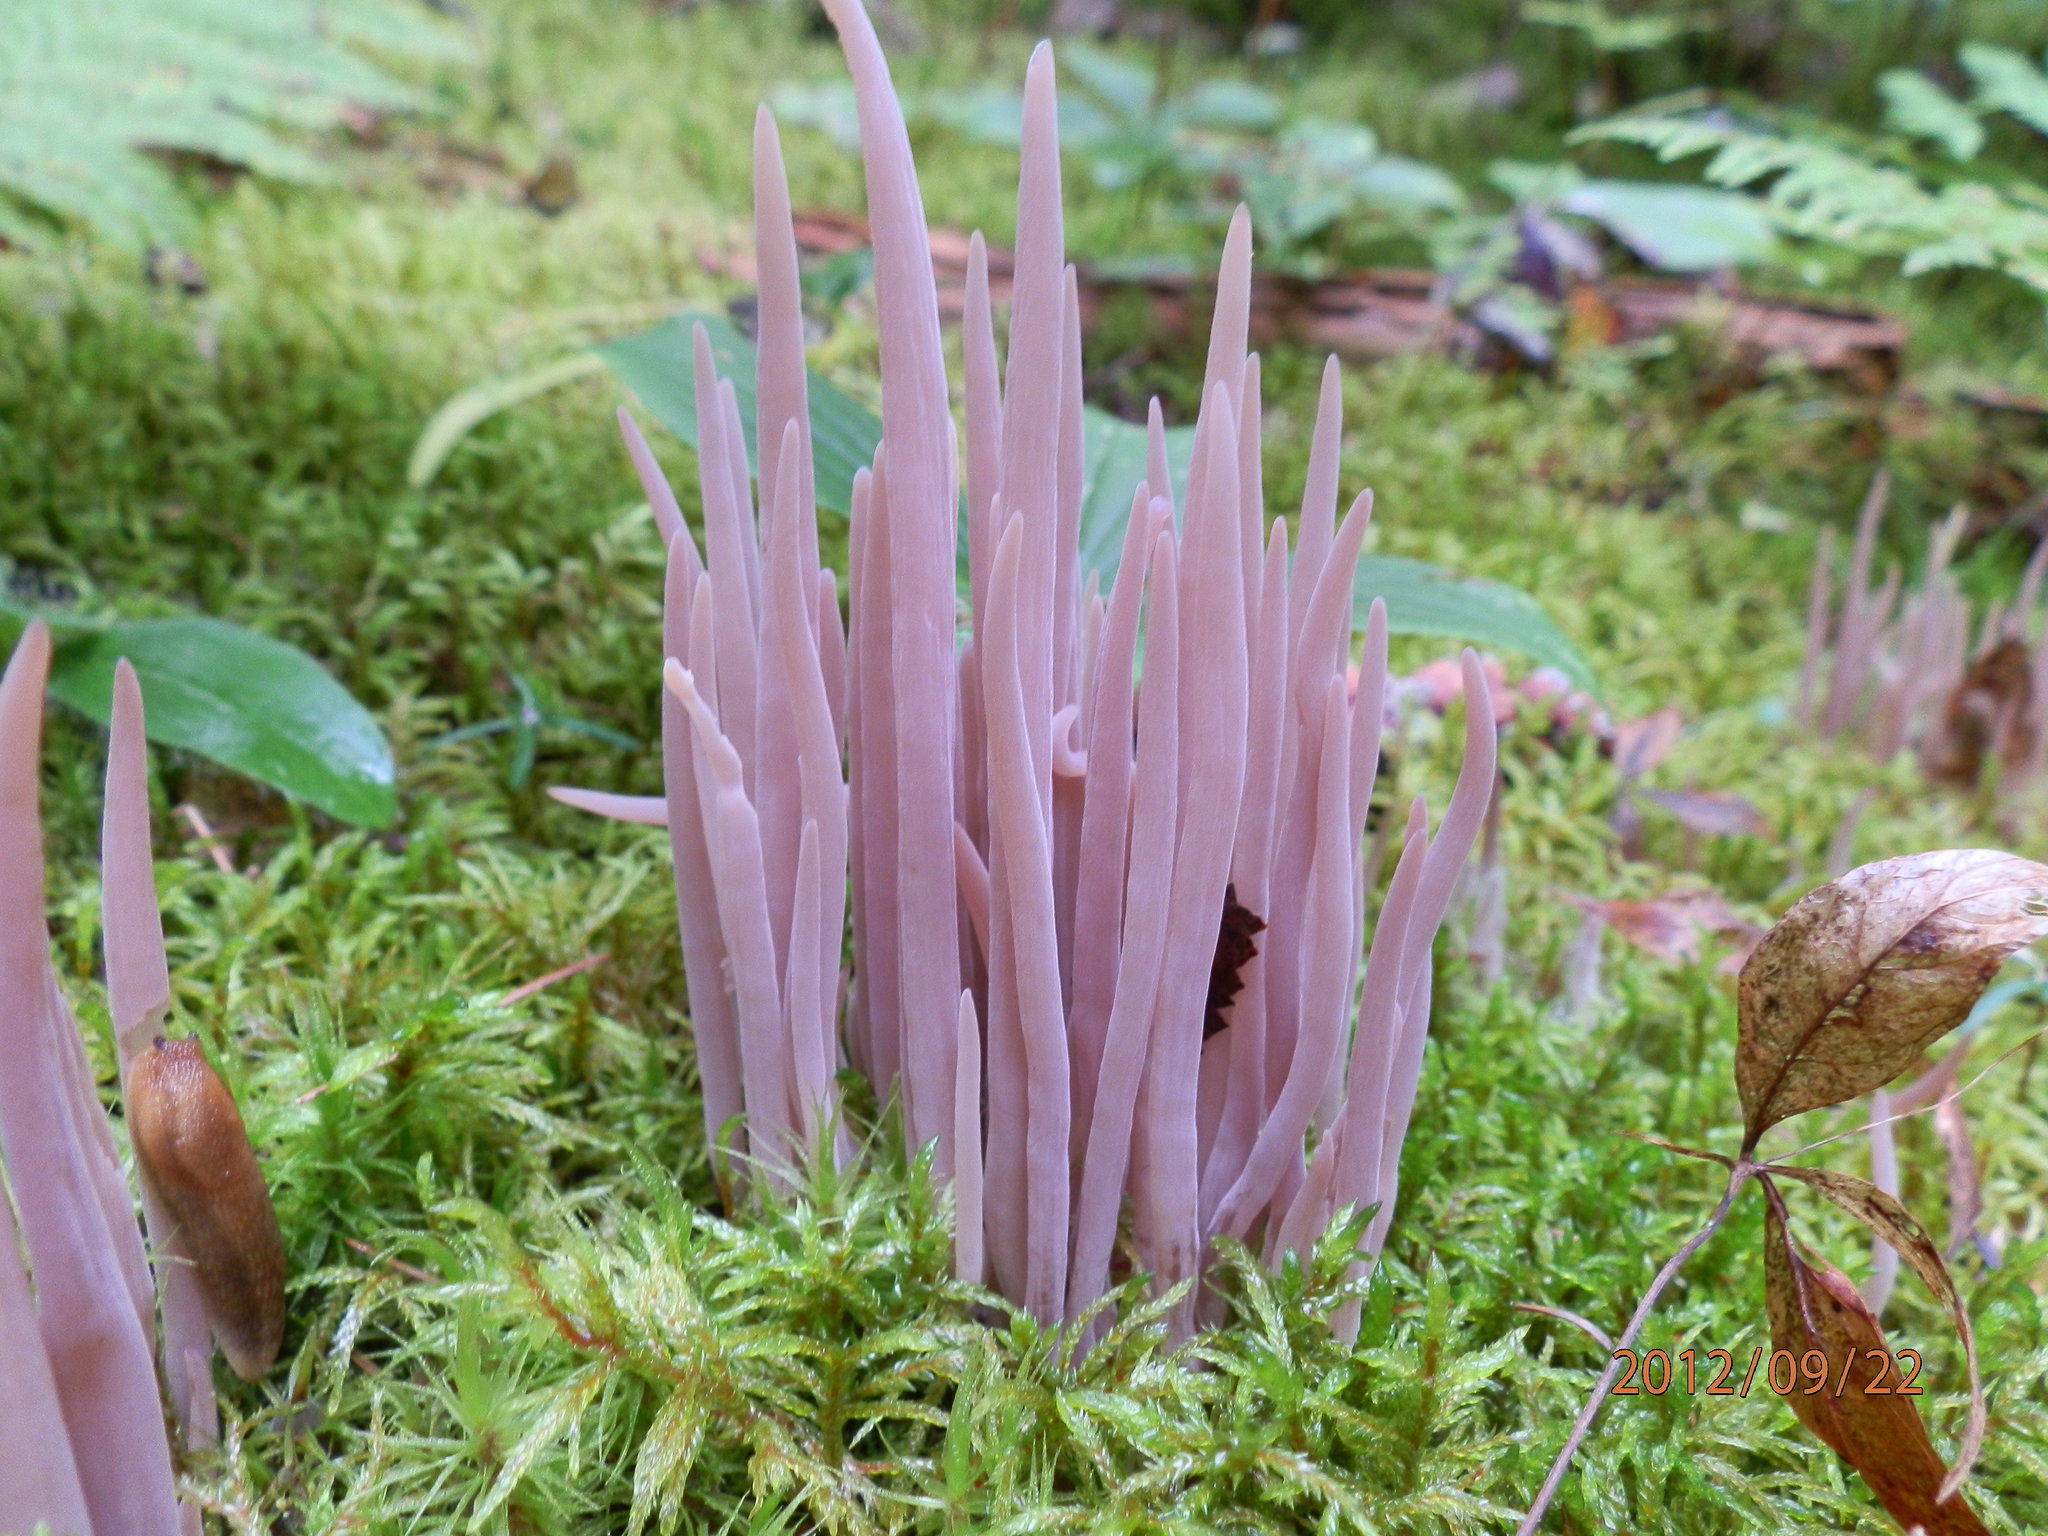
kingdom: Fungi
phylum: Basidiomycota
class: Agaricomycetes
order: Hymenochaetales
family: Rickenellaceae
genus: Alloclavaria
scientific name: Alloclavaria purpurea
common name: Purple spindles
